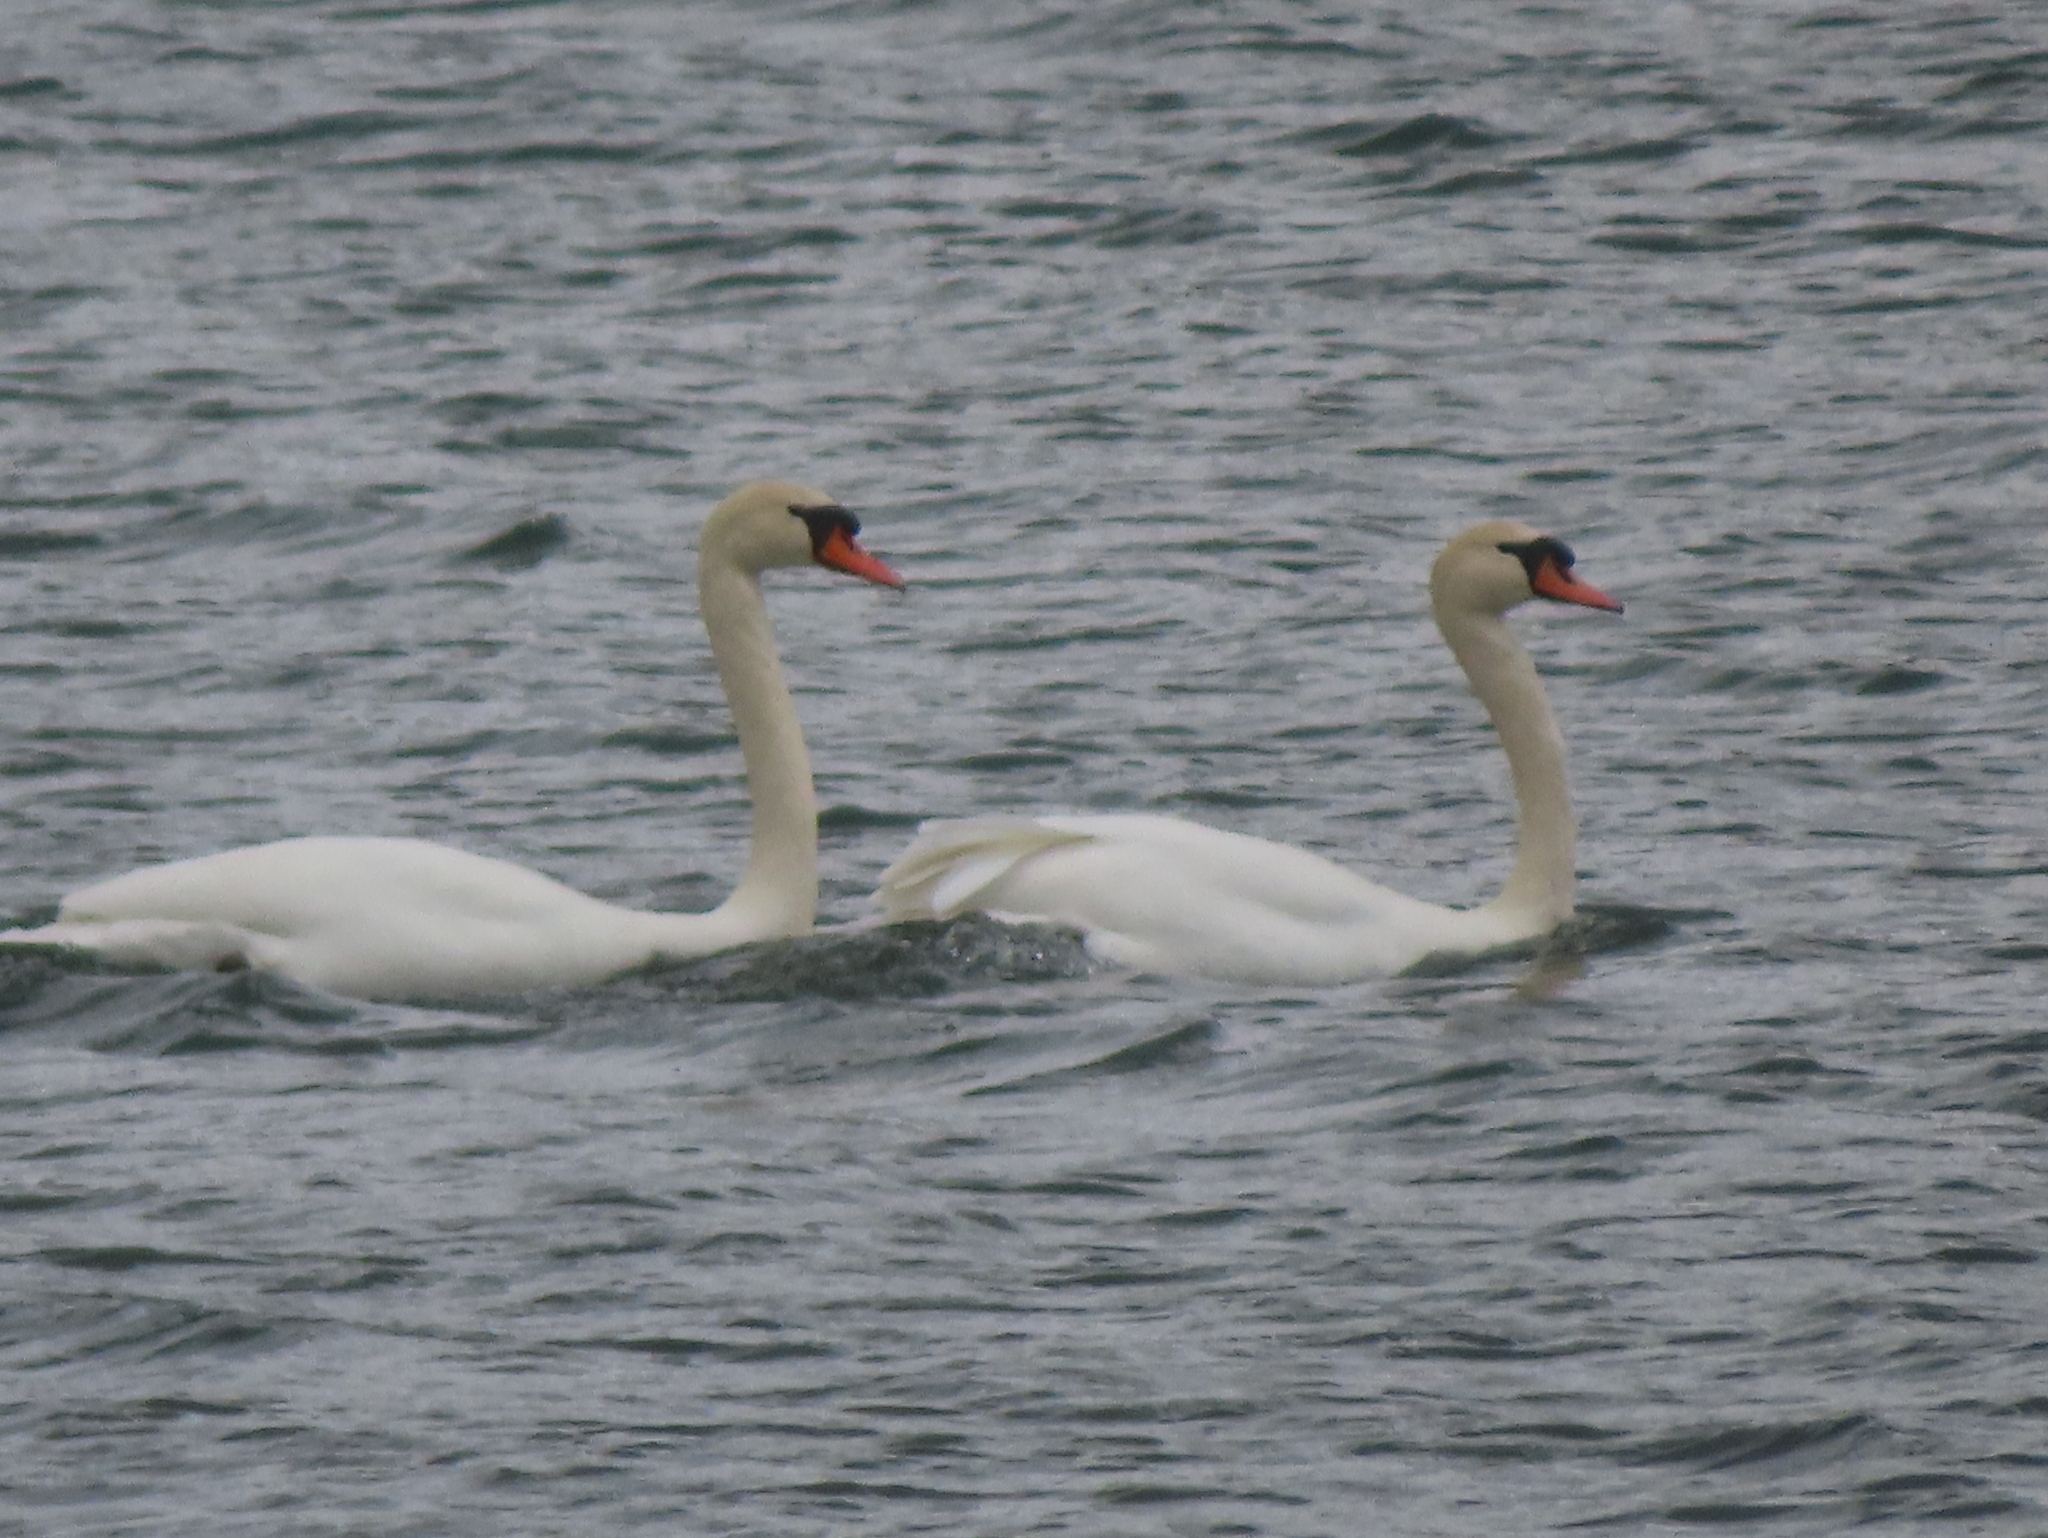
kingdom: Animalia
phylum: Chordata
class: Aves
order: Anseriformes
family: Anatidae
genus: Cygnus
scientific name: Cygnus olor
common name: Mute swan
